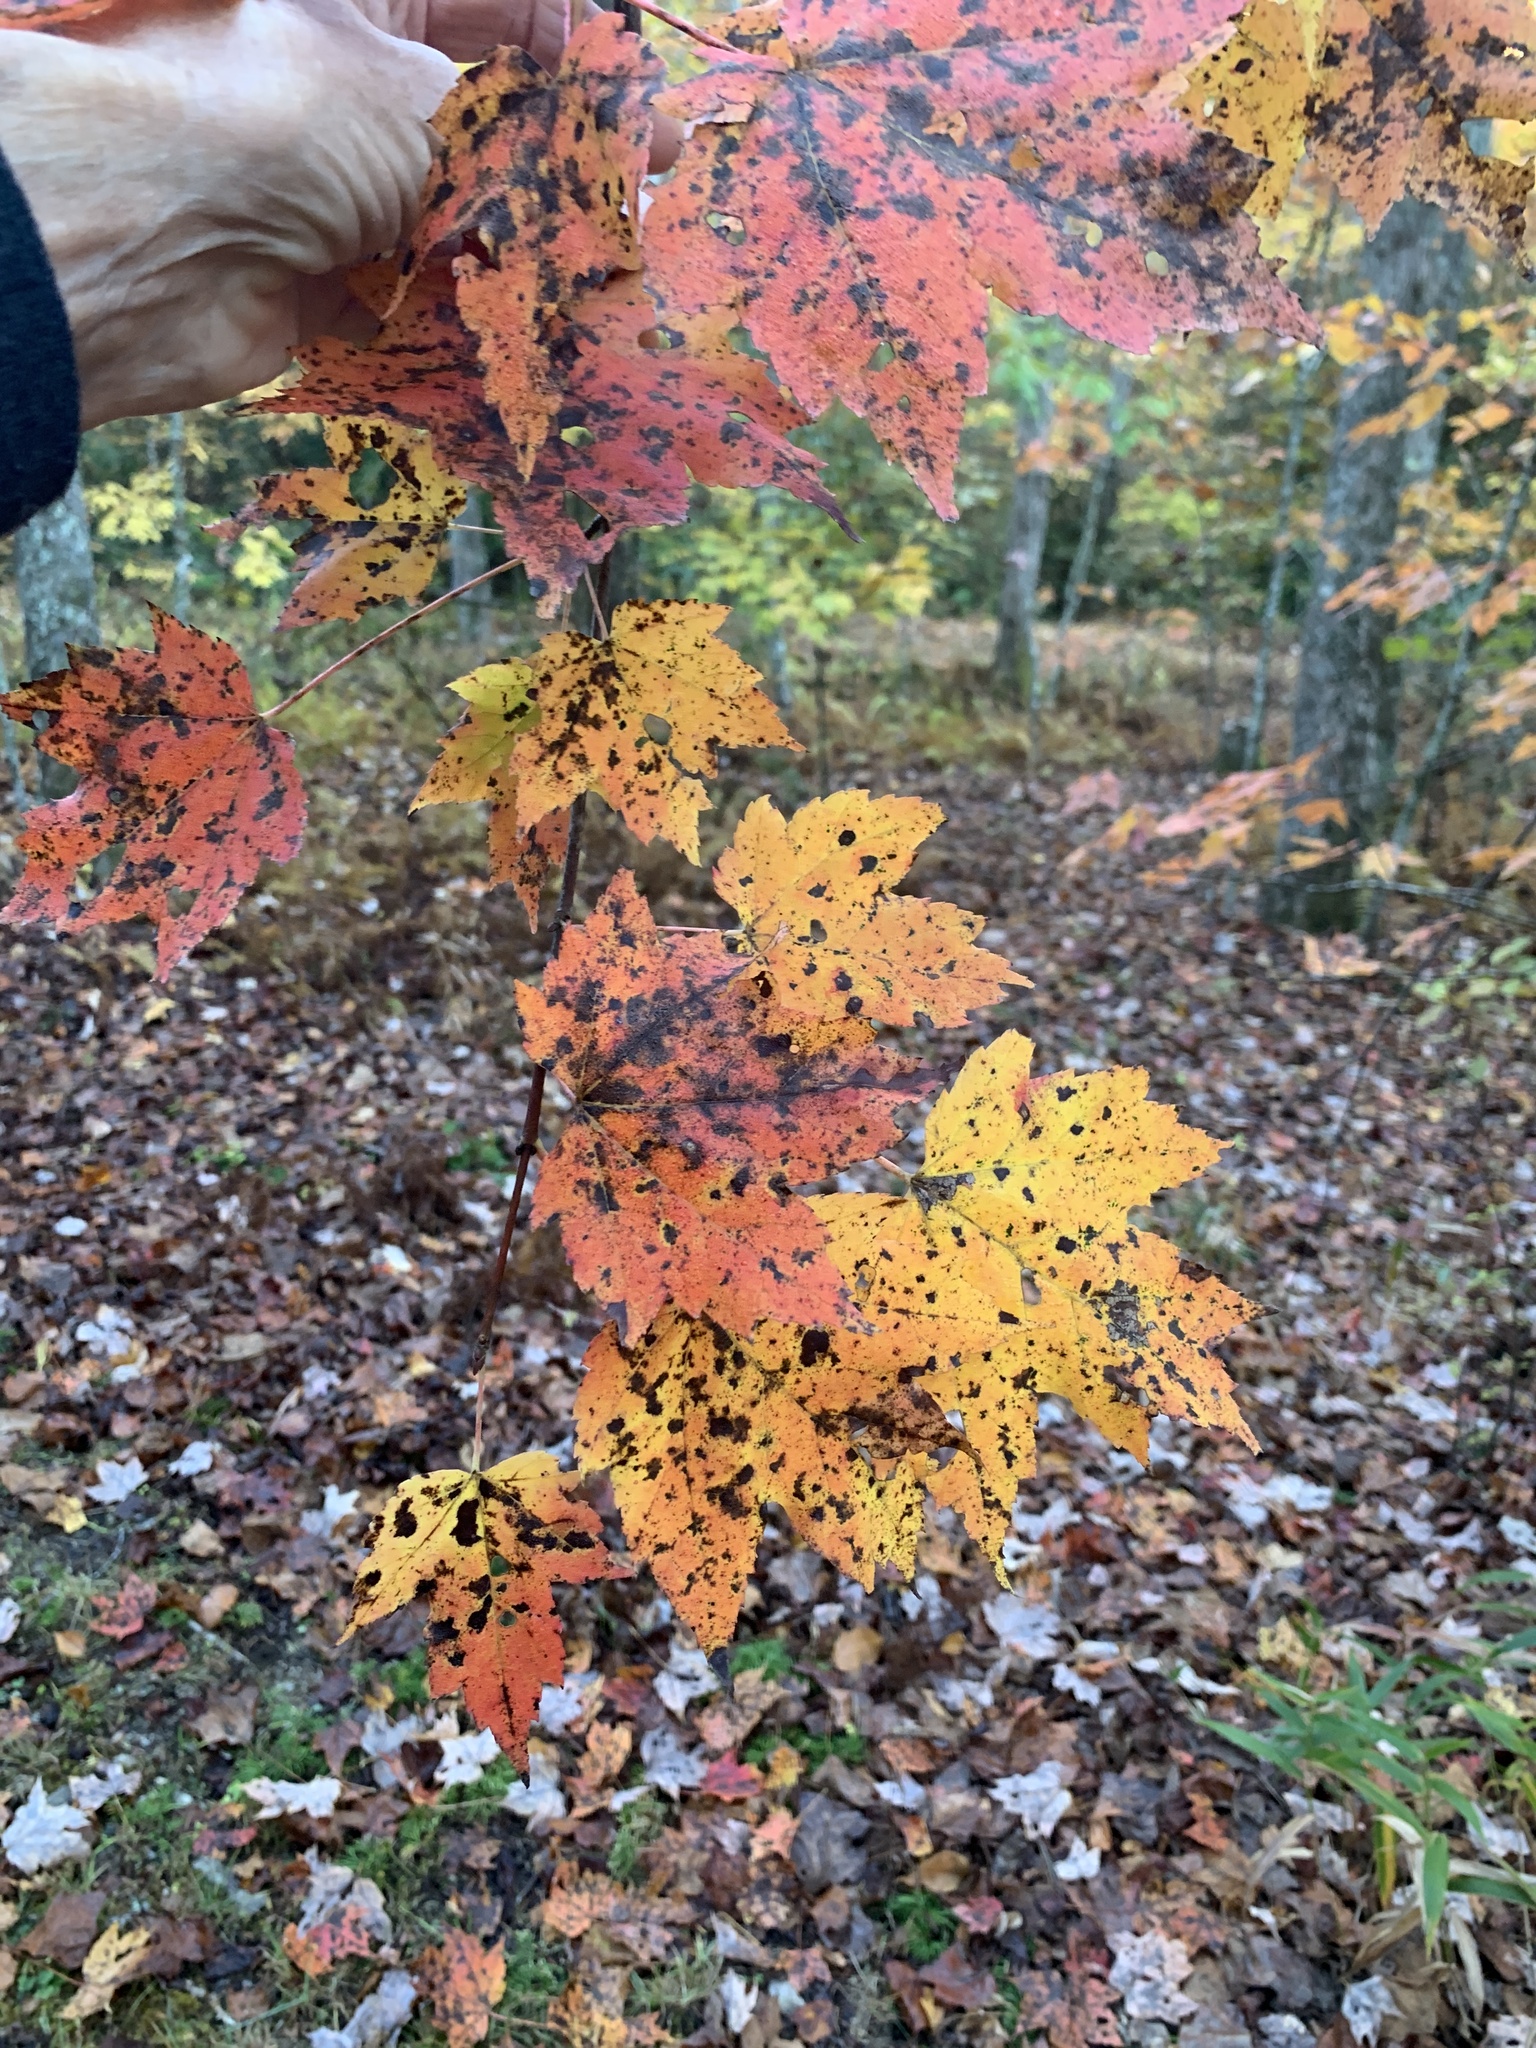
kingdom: Plantae
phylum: Tracheophyta
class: Magnoliopsida
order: Sapindales
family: Sapindaceae
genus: Acer
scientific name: Acer rubrum
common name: Red maple
